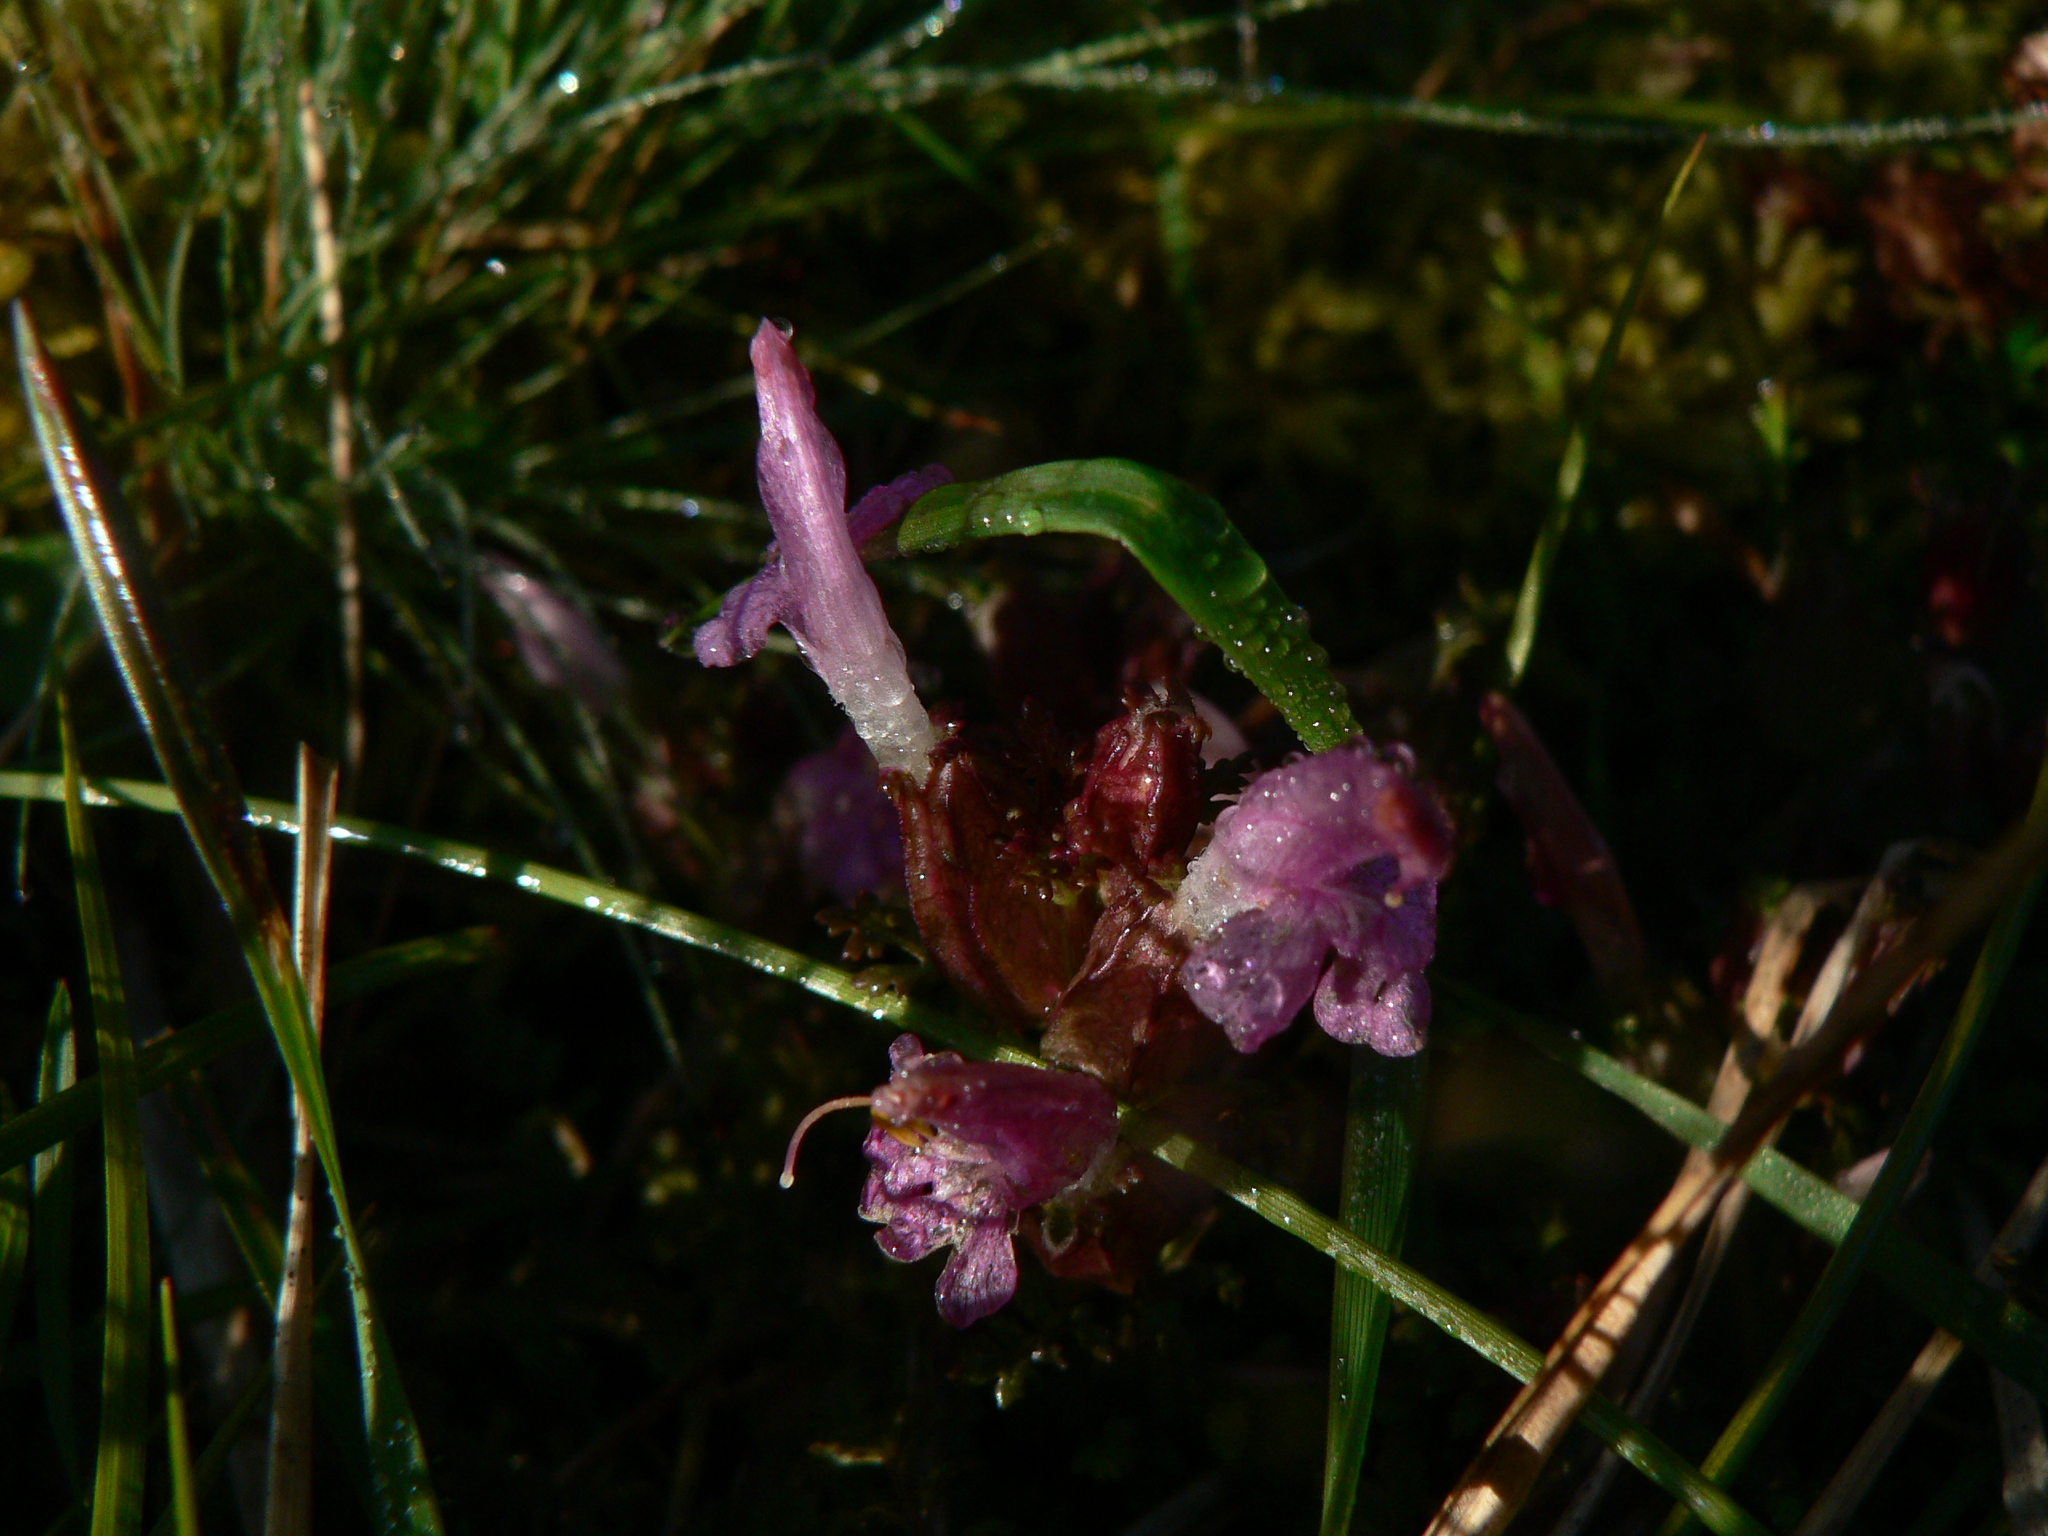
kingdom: Plantae
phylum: Tracheophyta
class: Magnoliopsida
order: Lamiales
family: Orobanchaceae
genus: Pedicularis
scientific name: Pedicularis sylvatica
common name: Lousewort
